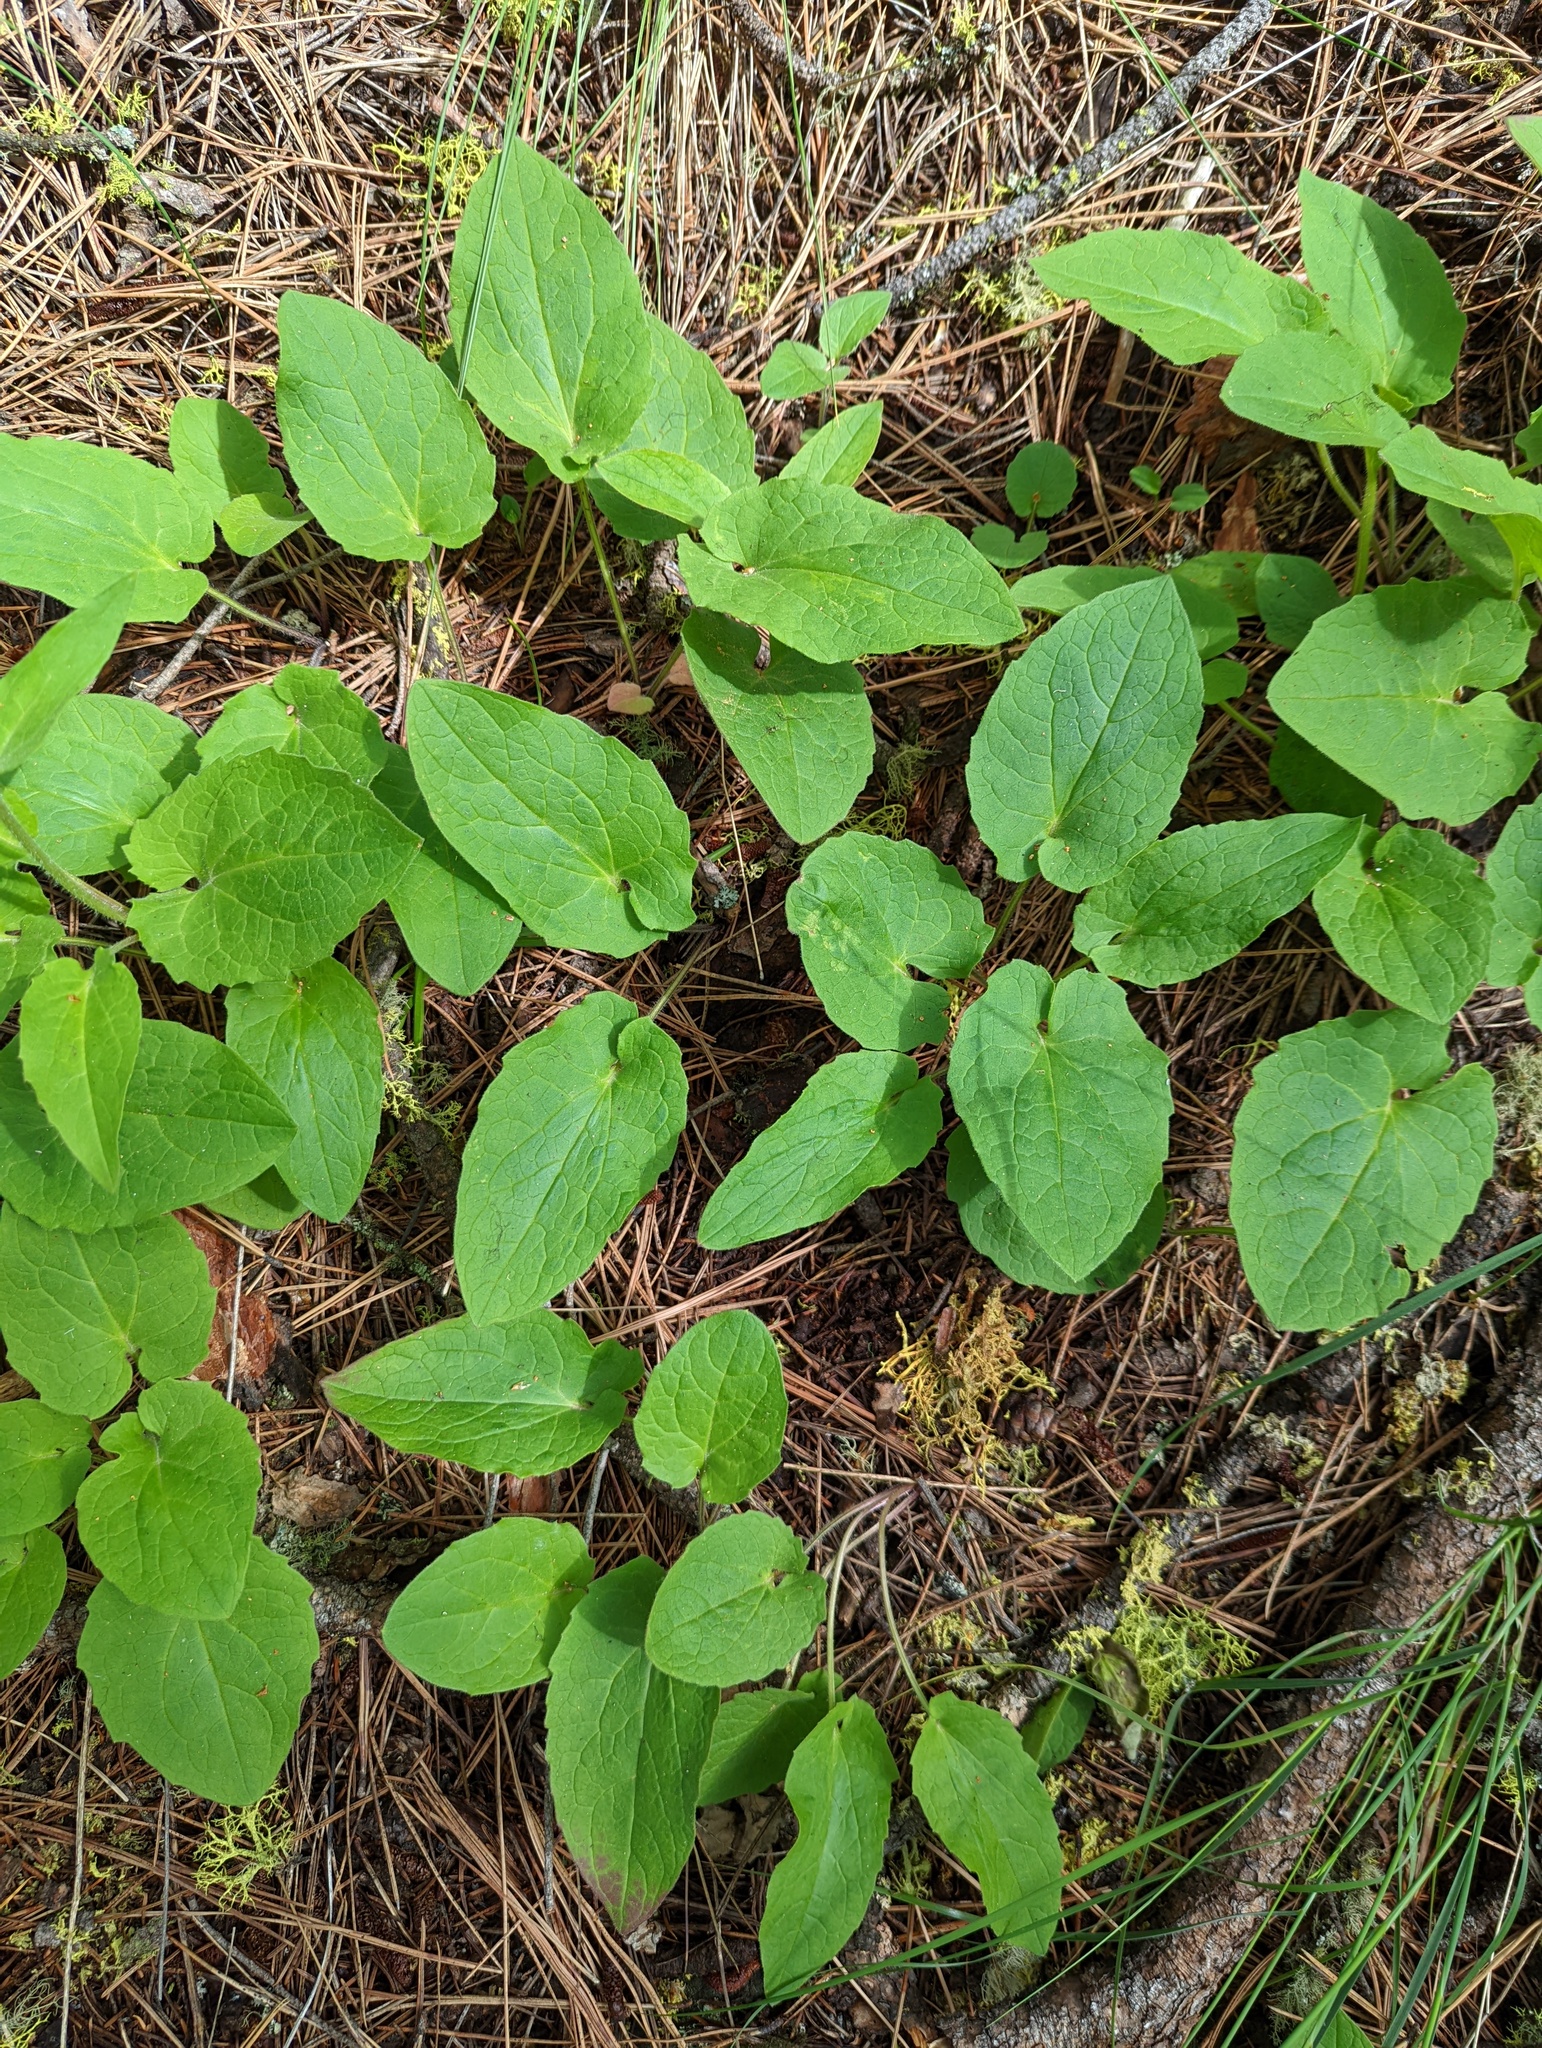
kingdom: Plantae
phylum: Tracheophyta
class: Magnoliopsida
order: Asterales
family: Asteraceae
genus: Arnica
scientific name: Arnica cordifolia
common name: Heart-leaf arnica
